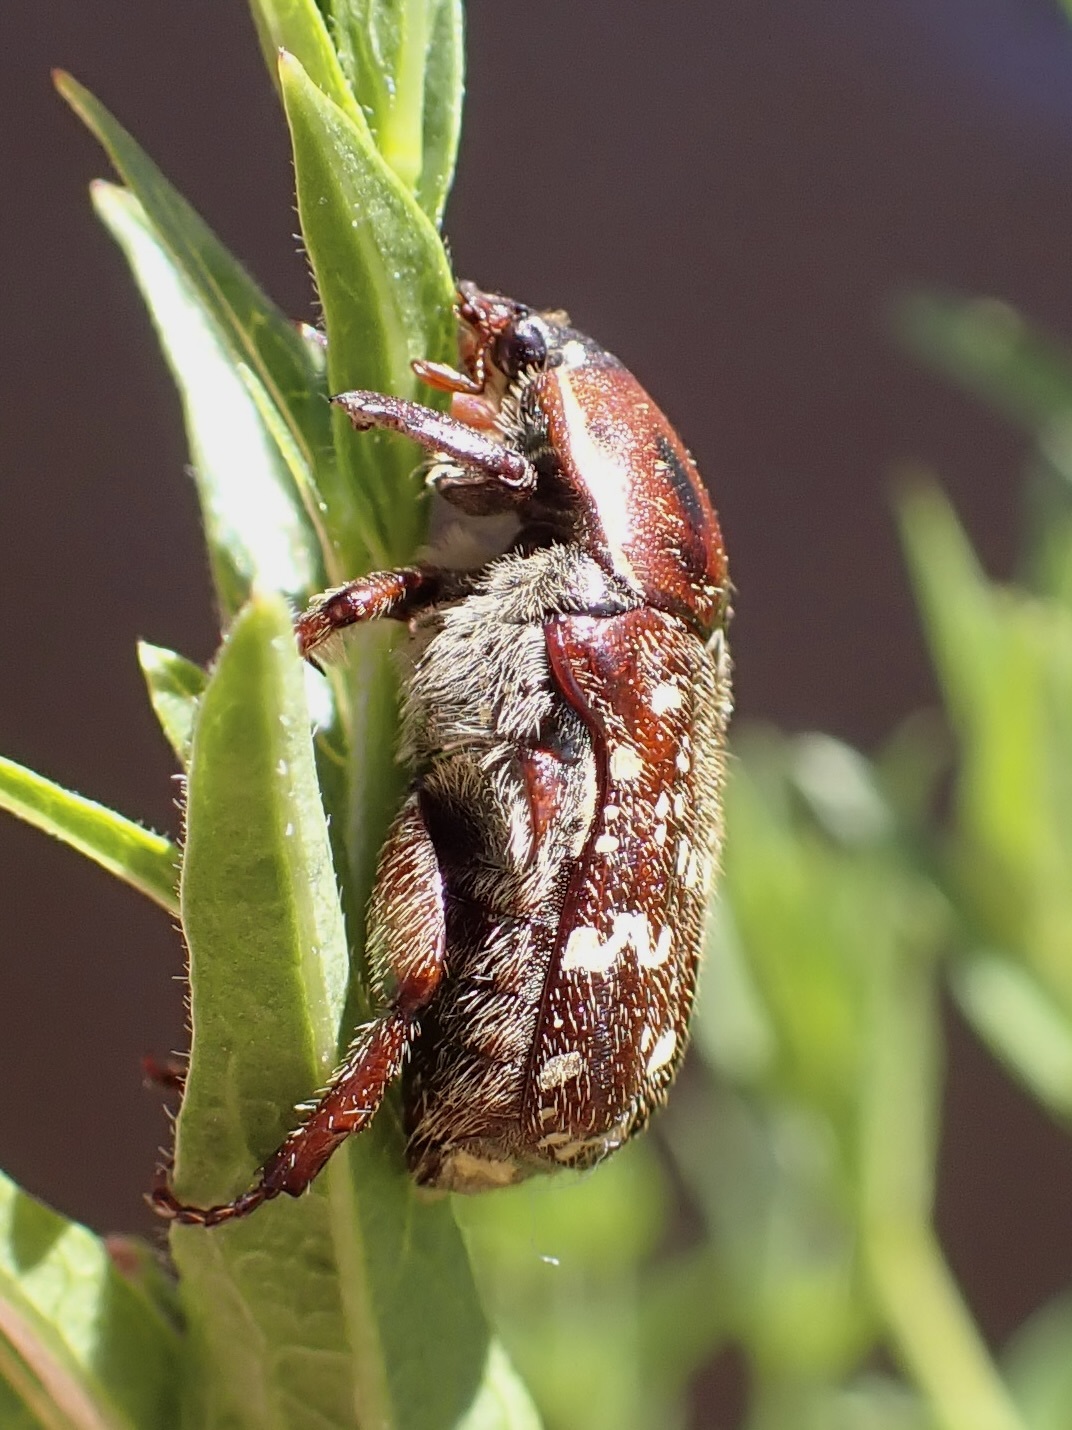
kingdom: Animalia
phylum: Arthropoda
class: Insecta
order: Coleoptera
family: Scarabaeidae
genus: Euphoria
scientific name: Euphoria leucographa
